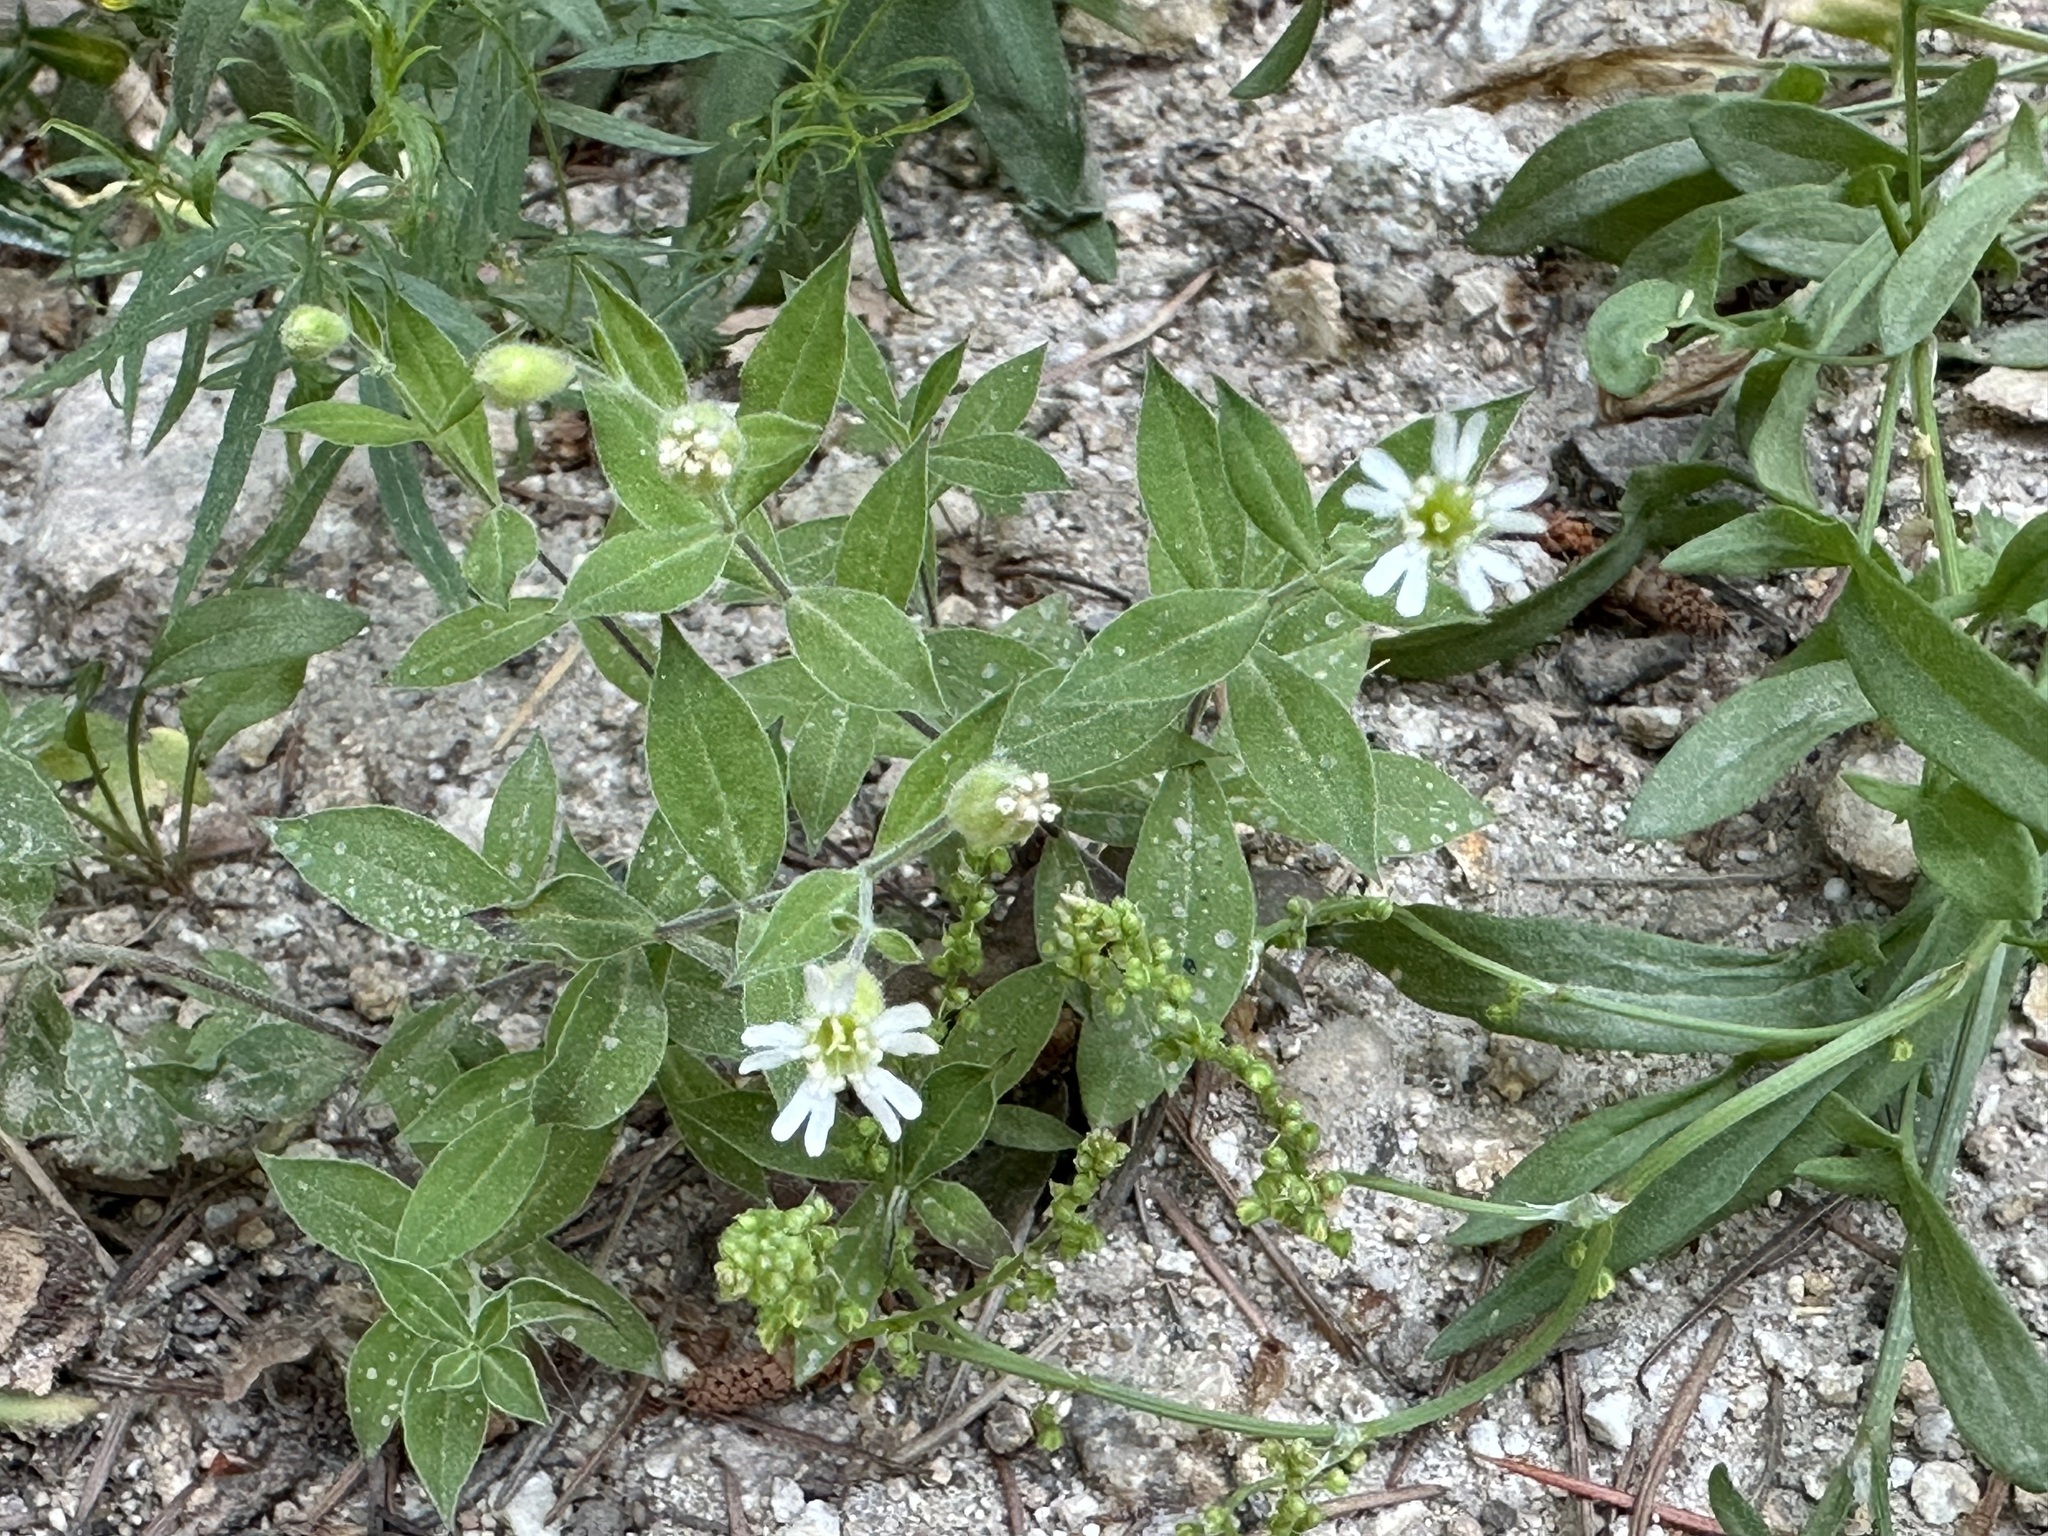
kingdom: Plantae
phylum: Tracheophyta
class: Magnoliopsida
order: Caryophyllales
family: Caryophyllaceae
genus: Silene
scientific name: Silene menziesii
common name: Menzies's catchfly
